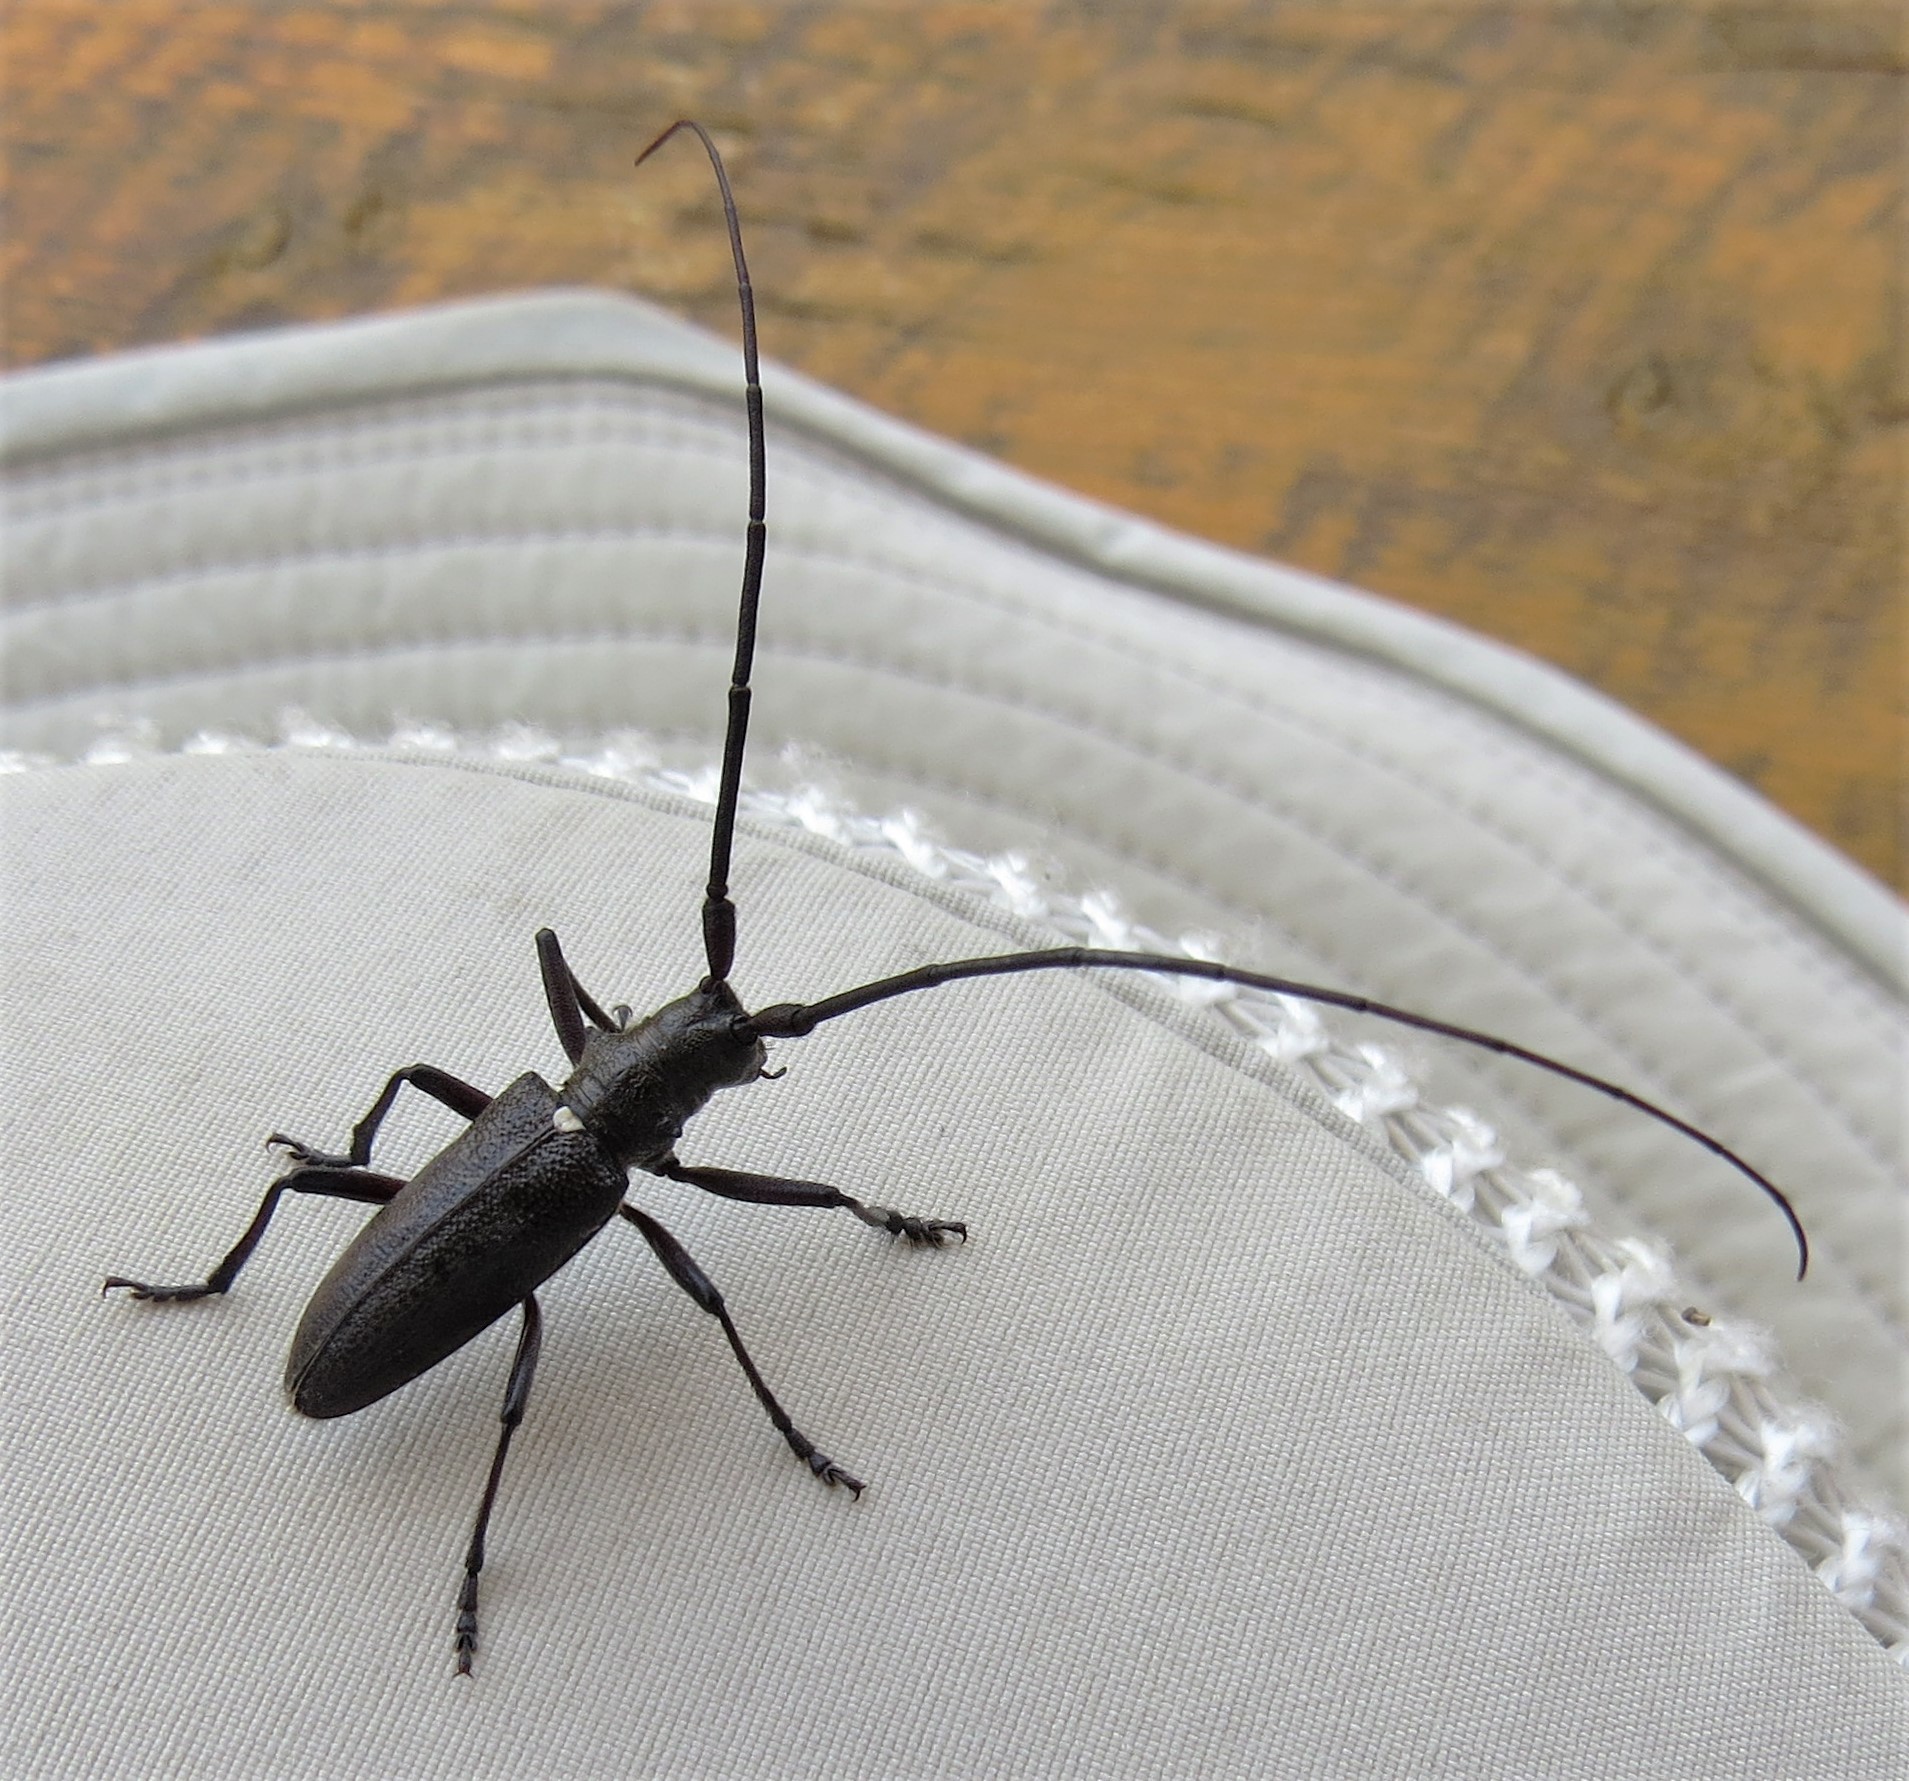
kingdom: Animalia
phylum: Arthropoda
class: Insecta
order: Coleoptera
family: Cerambycidae
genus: Monochamus
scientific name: Monochamus scutellatus
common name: White-spotted sawyer beetle
